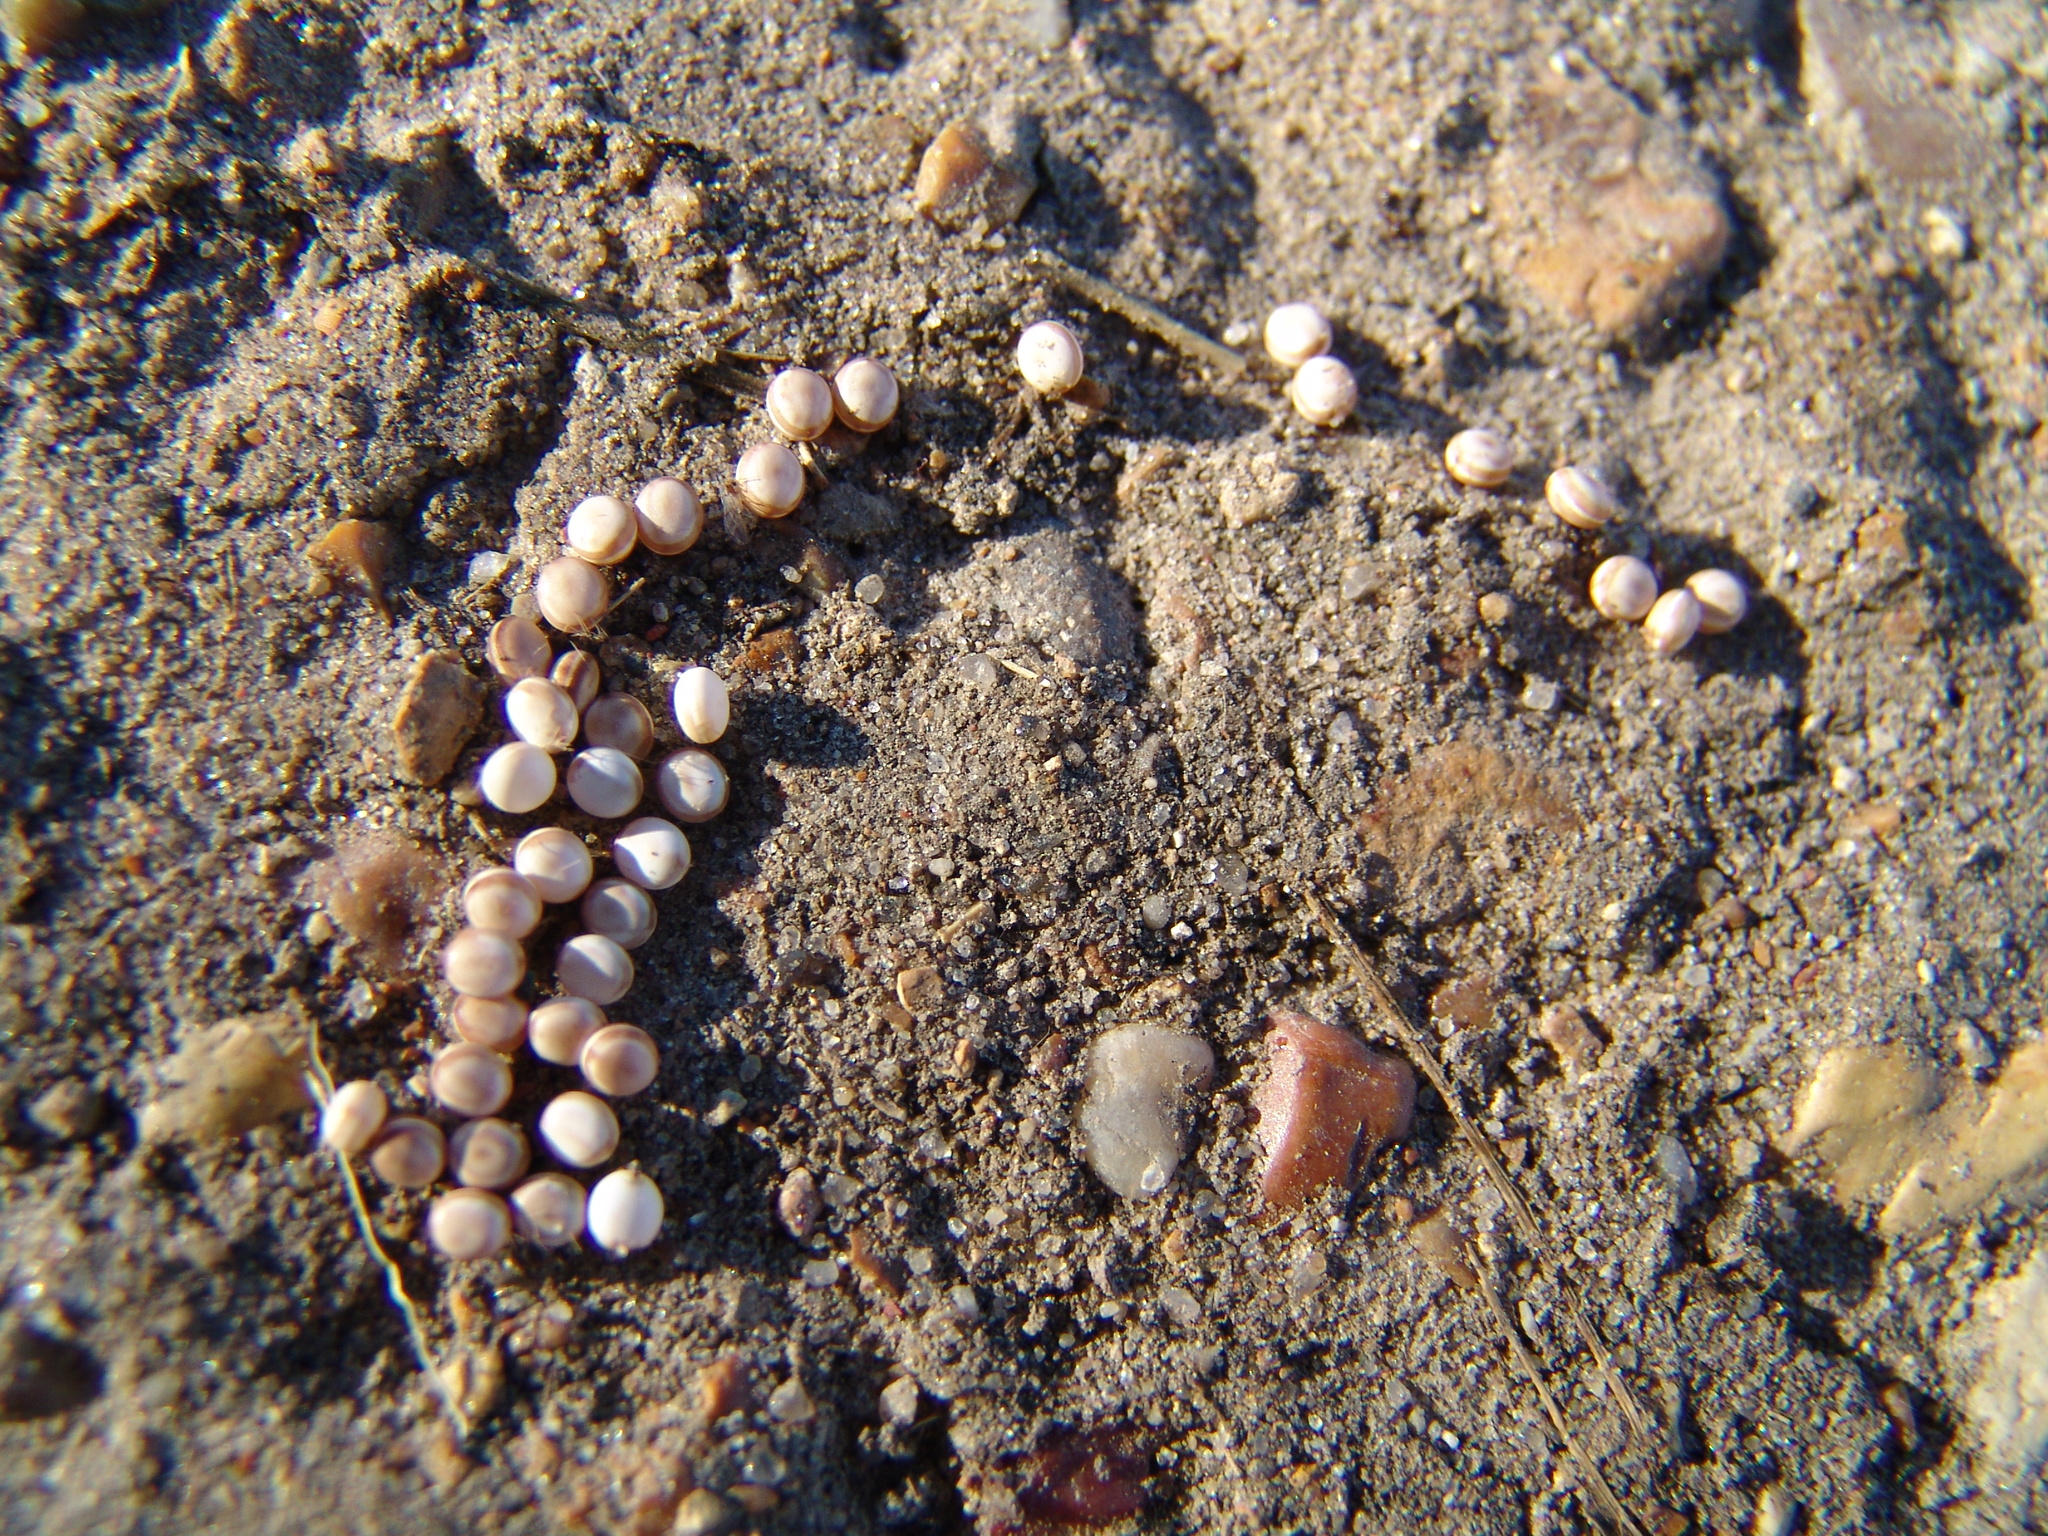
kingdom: Animalia
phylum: Arthropoda
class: Insecta
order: Lepidoptera
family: Saturniidae
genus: Antheraea
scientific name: Antheraea polyphemus
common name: Polyphemus moth
